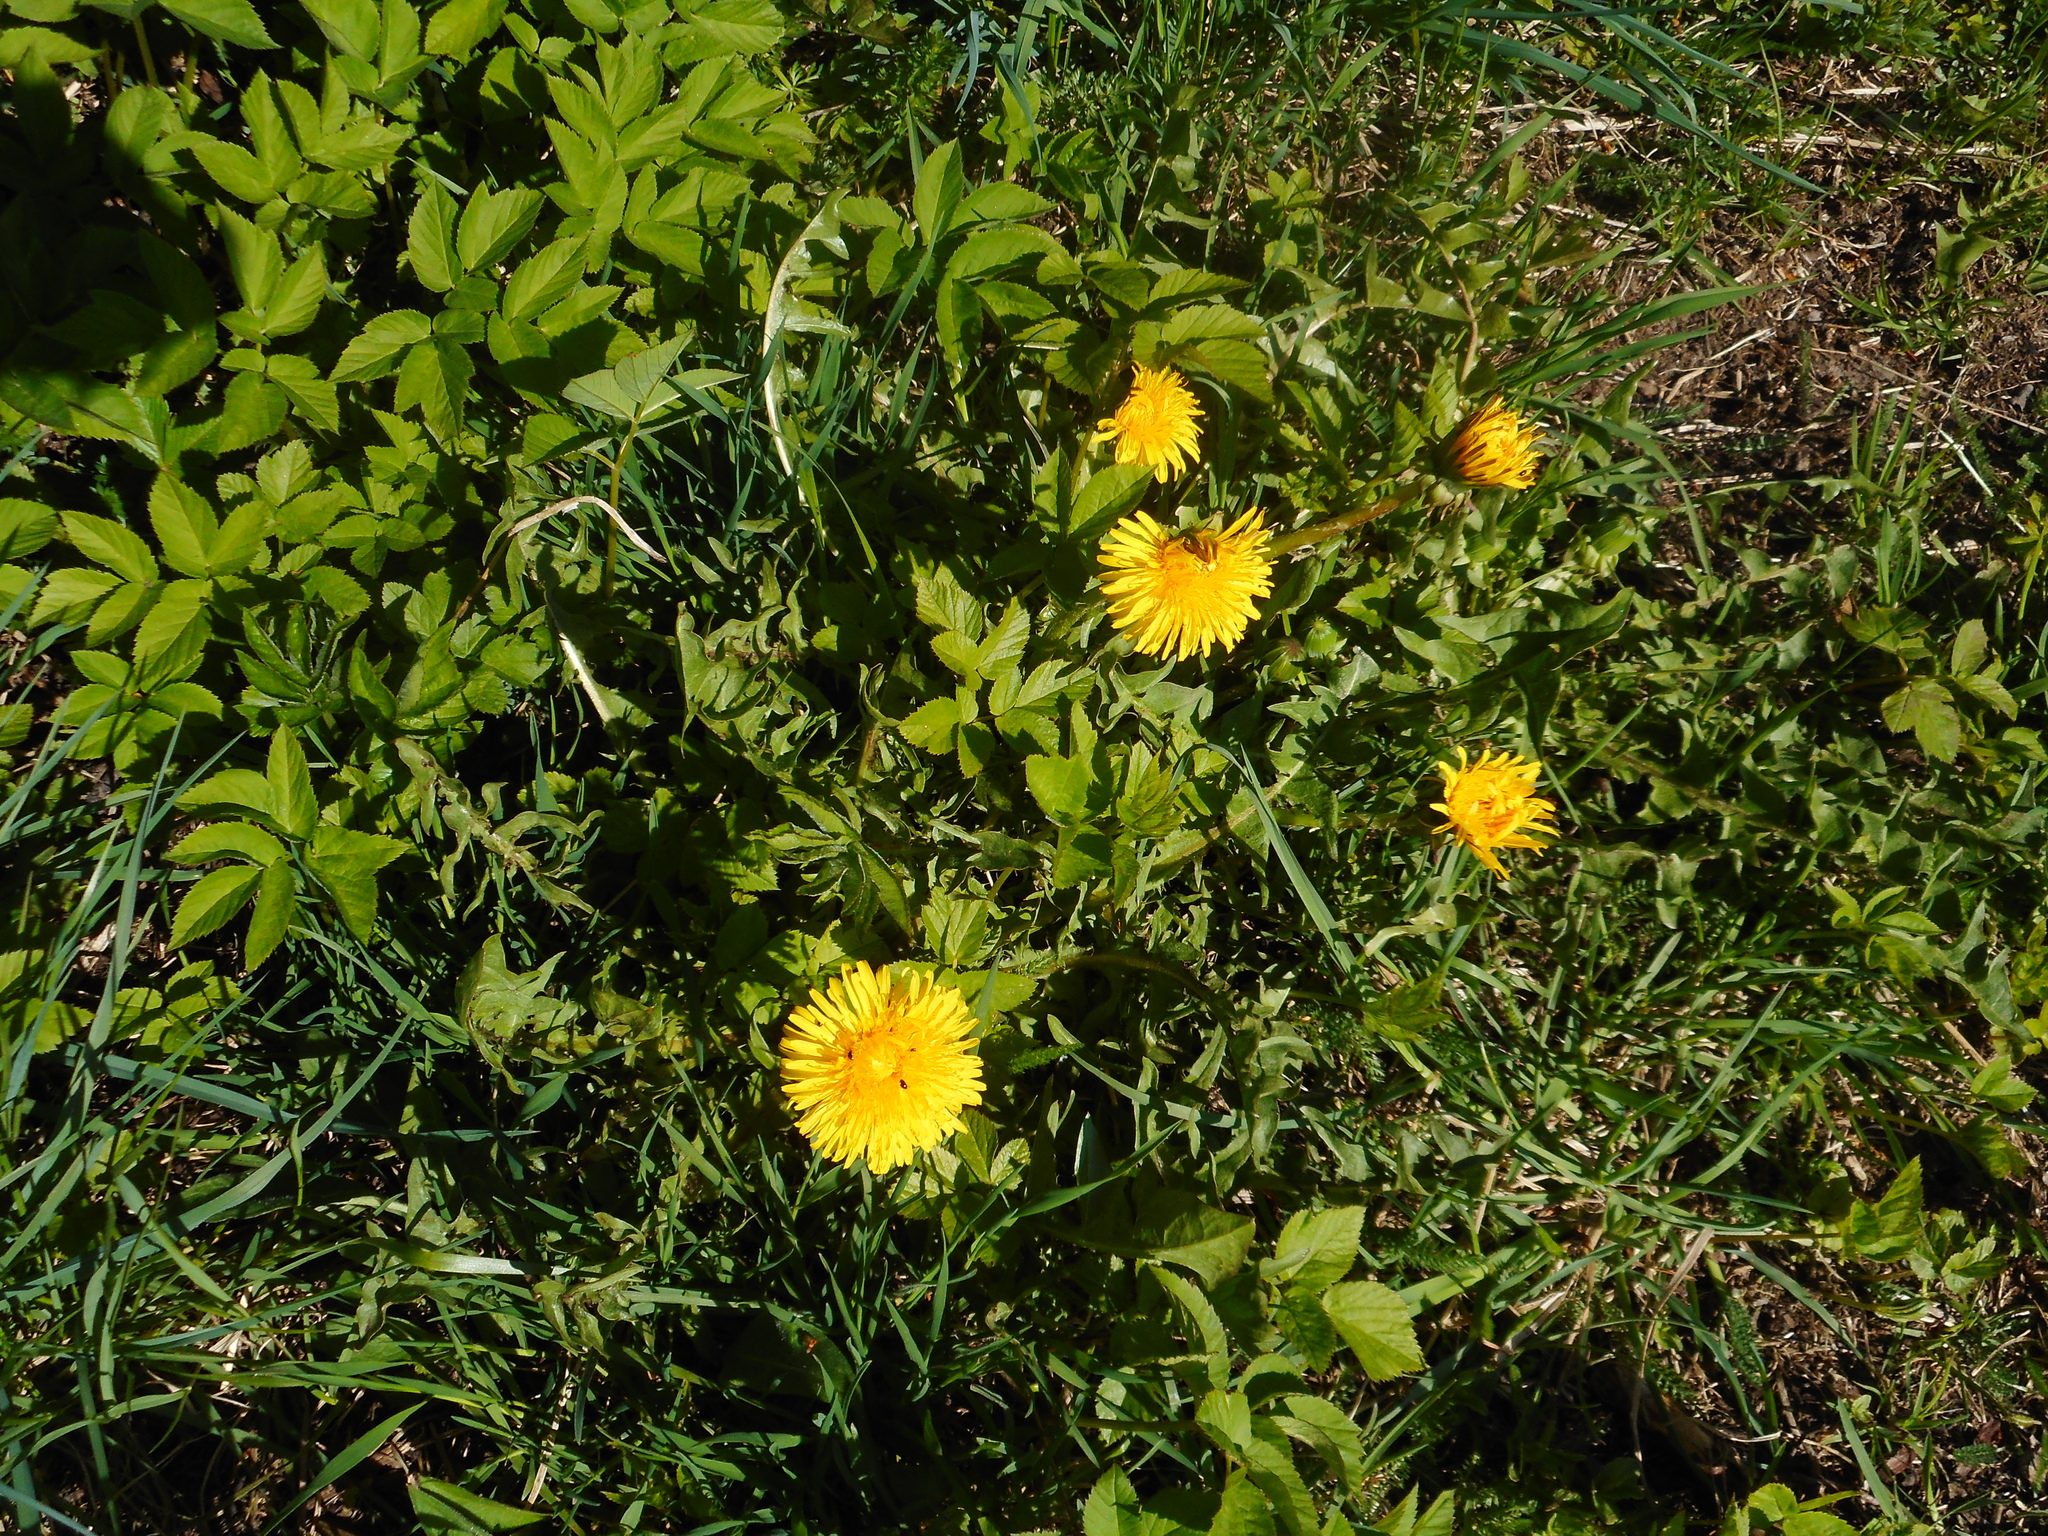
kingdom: Plantae
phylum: Tracheophyta
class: Magnoliopsida
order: Asterales
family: Asteraceae
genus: Taraxacum
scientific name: Taraxacum officinale
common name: Common dandelion
